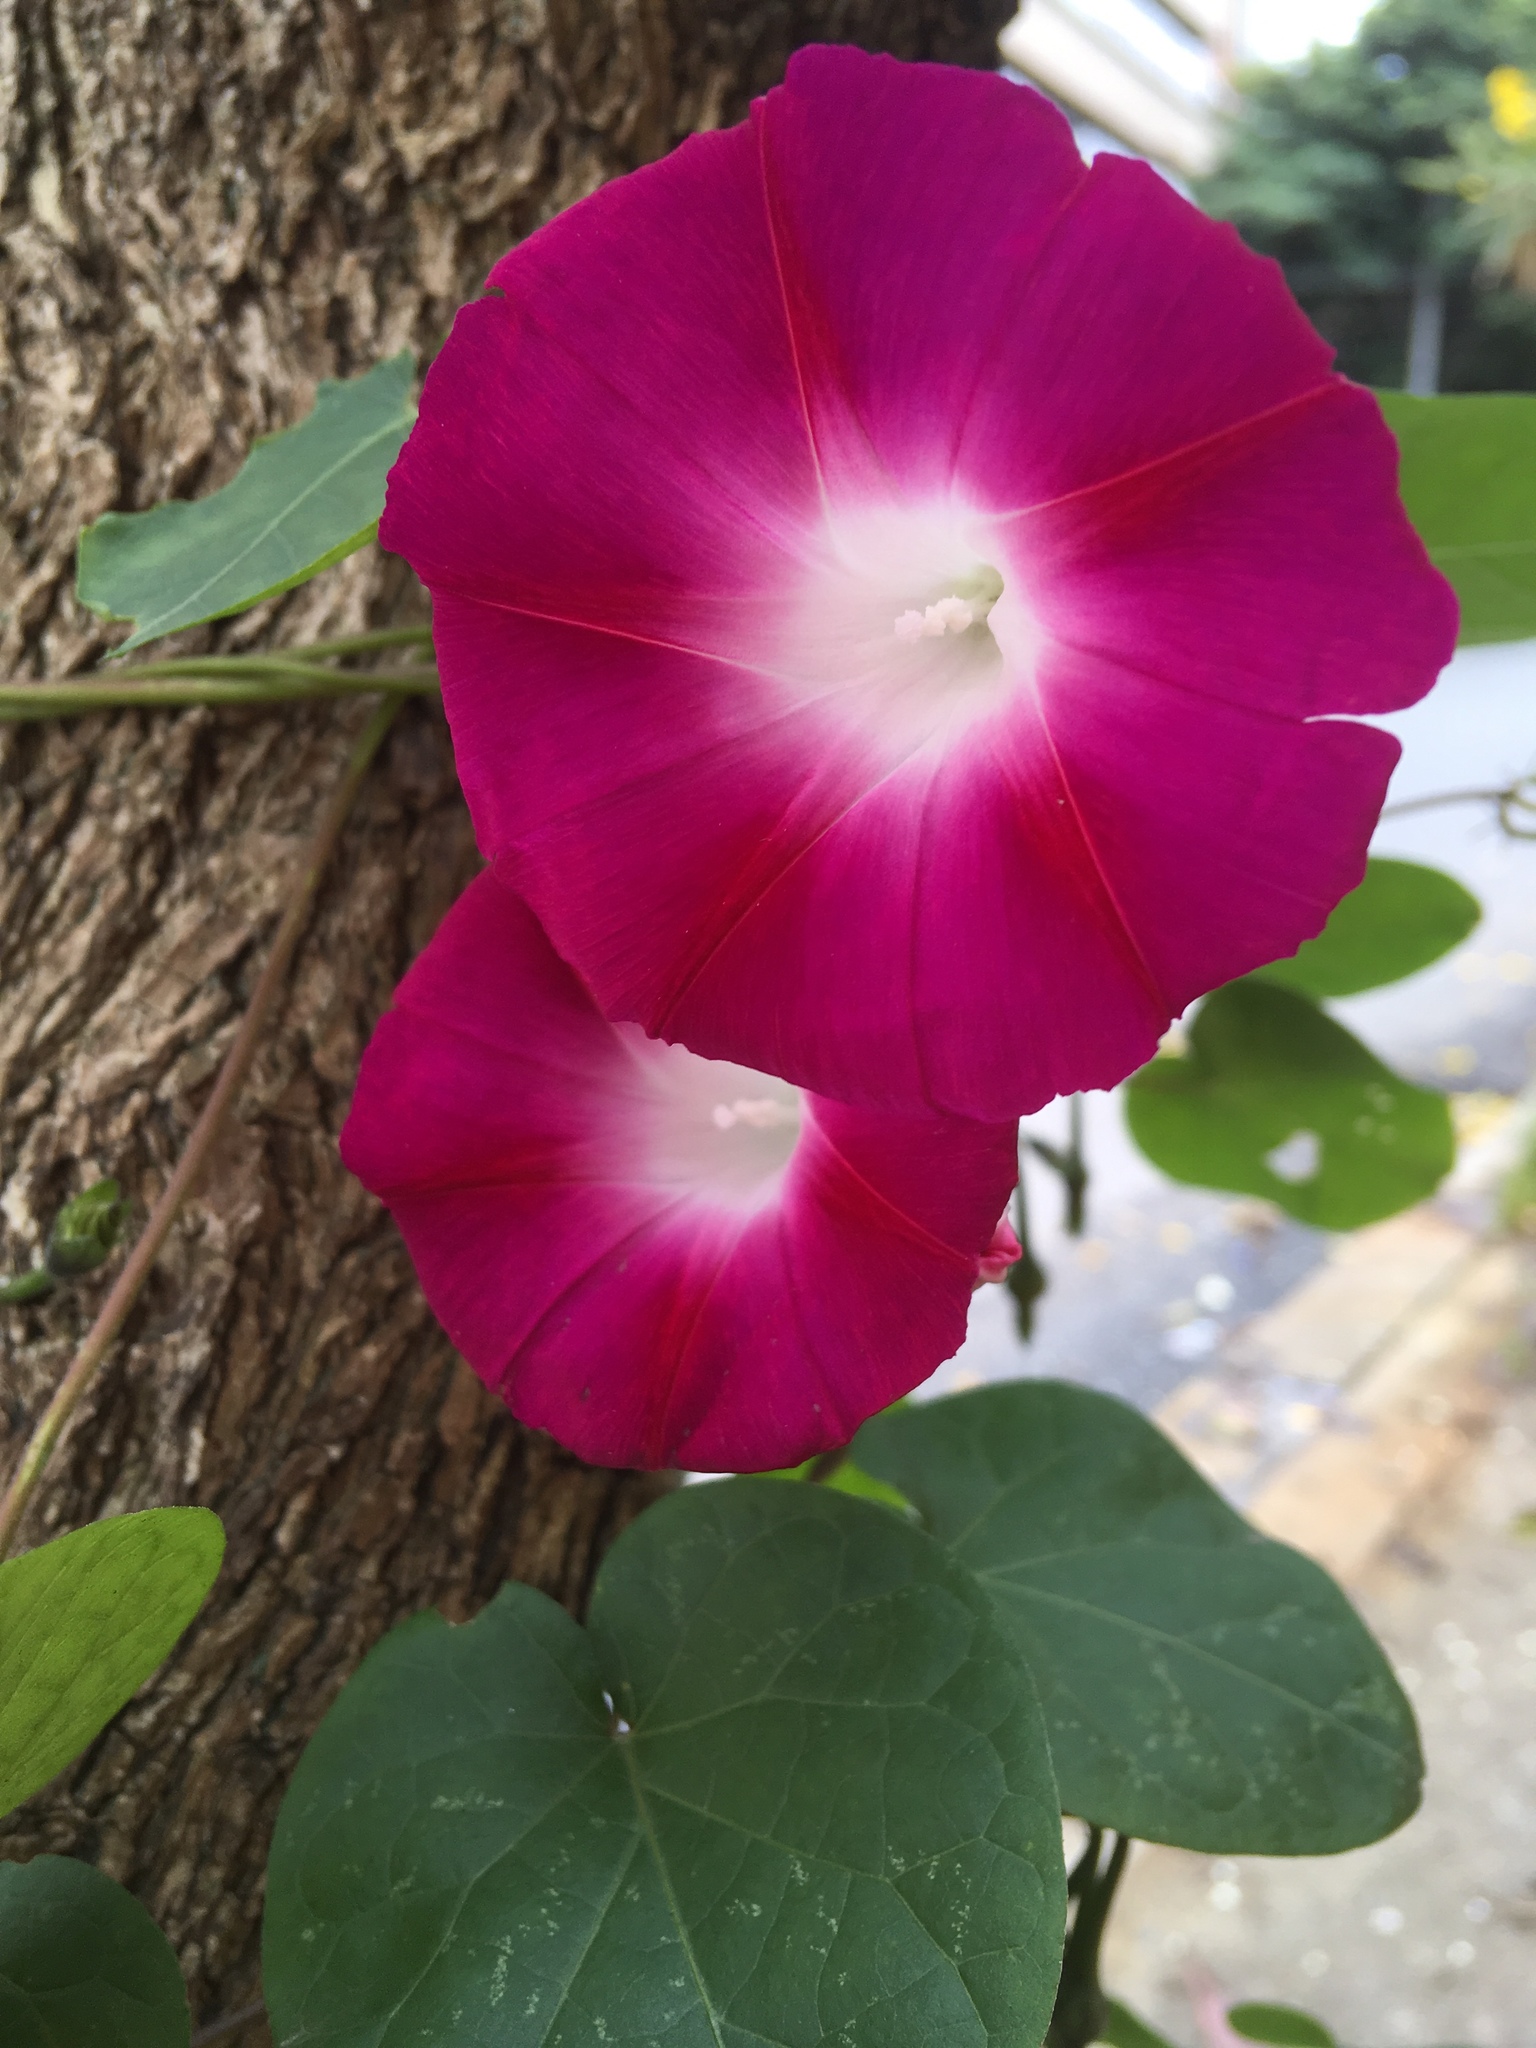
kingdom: Plantae
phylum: Tracheophyta
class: Magnoliopsida
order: Solanales
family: Convolvulaceae
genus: Ipomoea
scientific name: Ipomoea purpurea
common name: Common morning-glory
